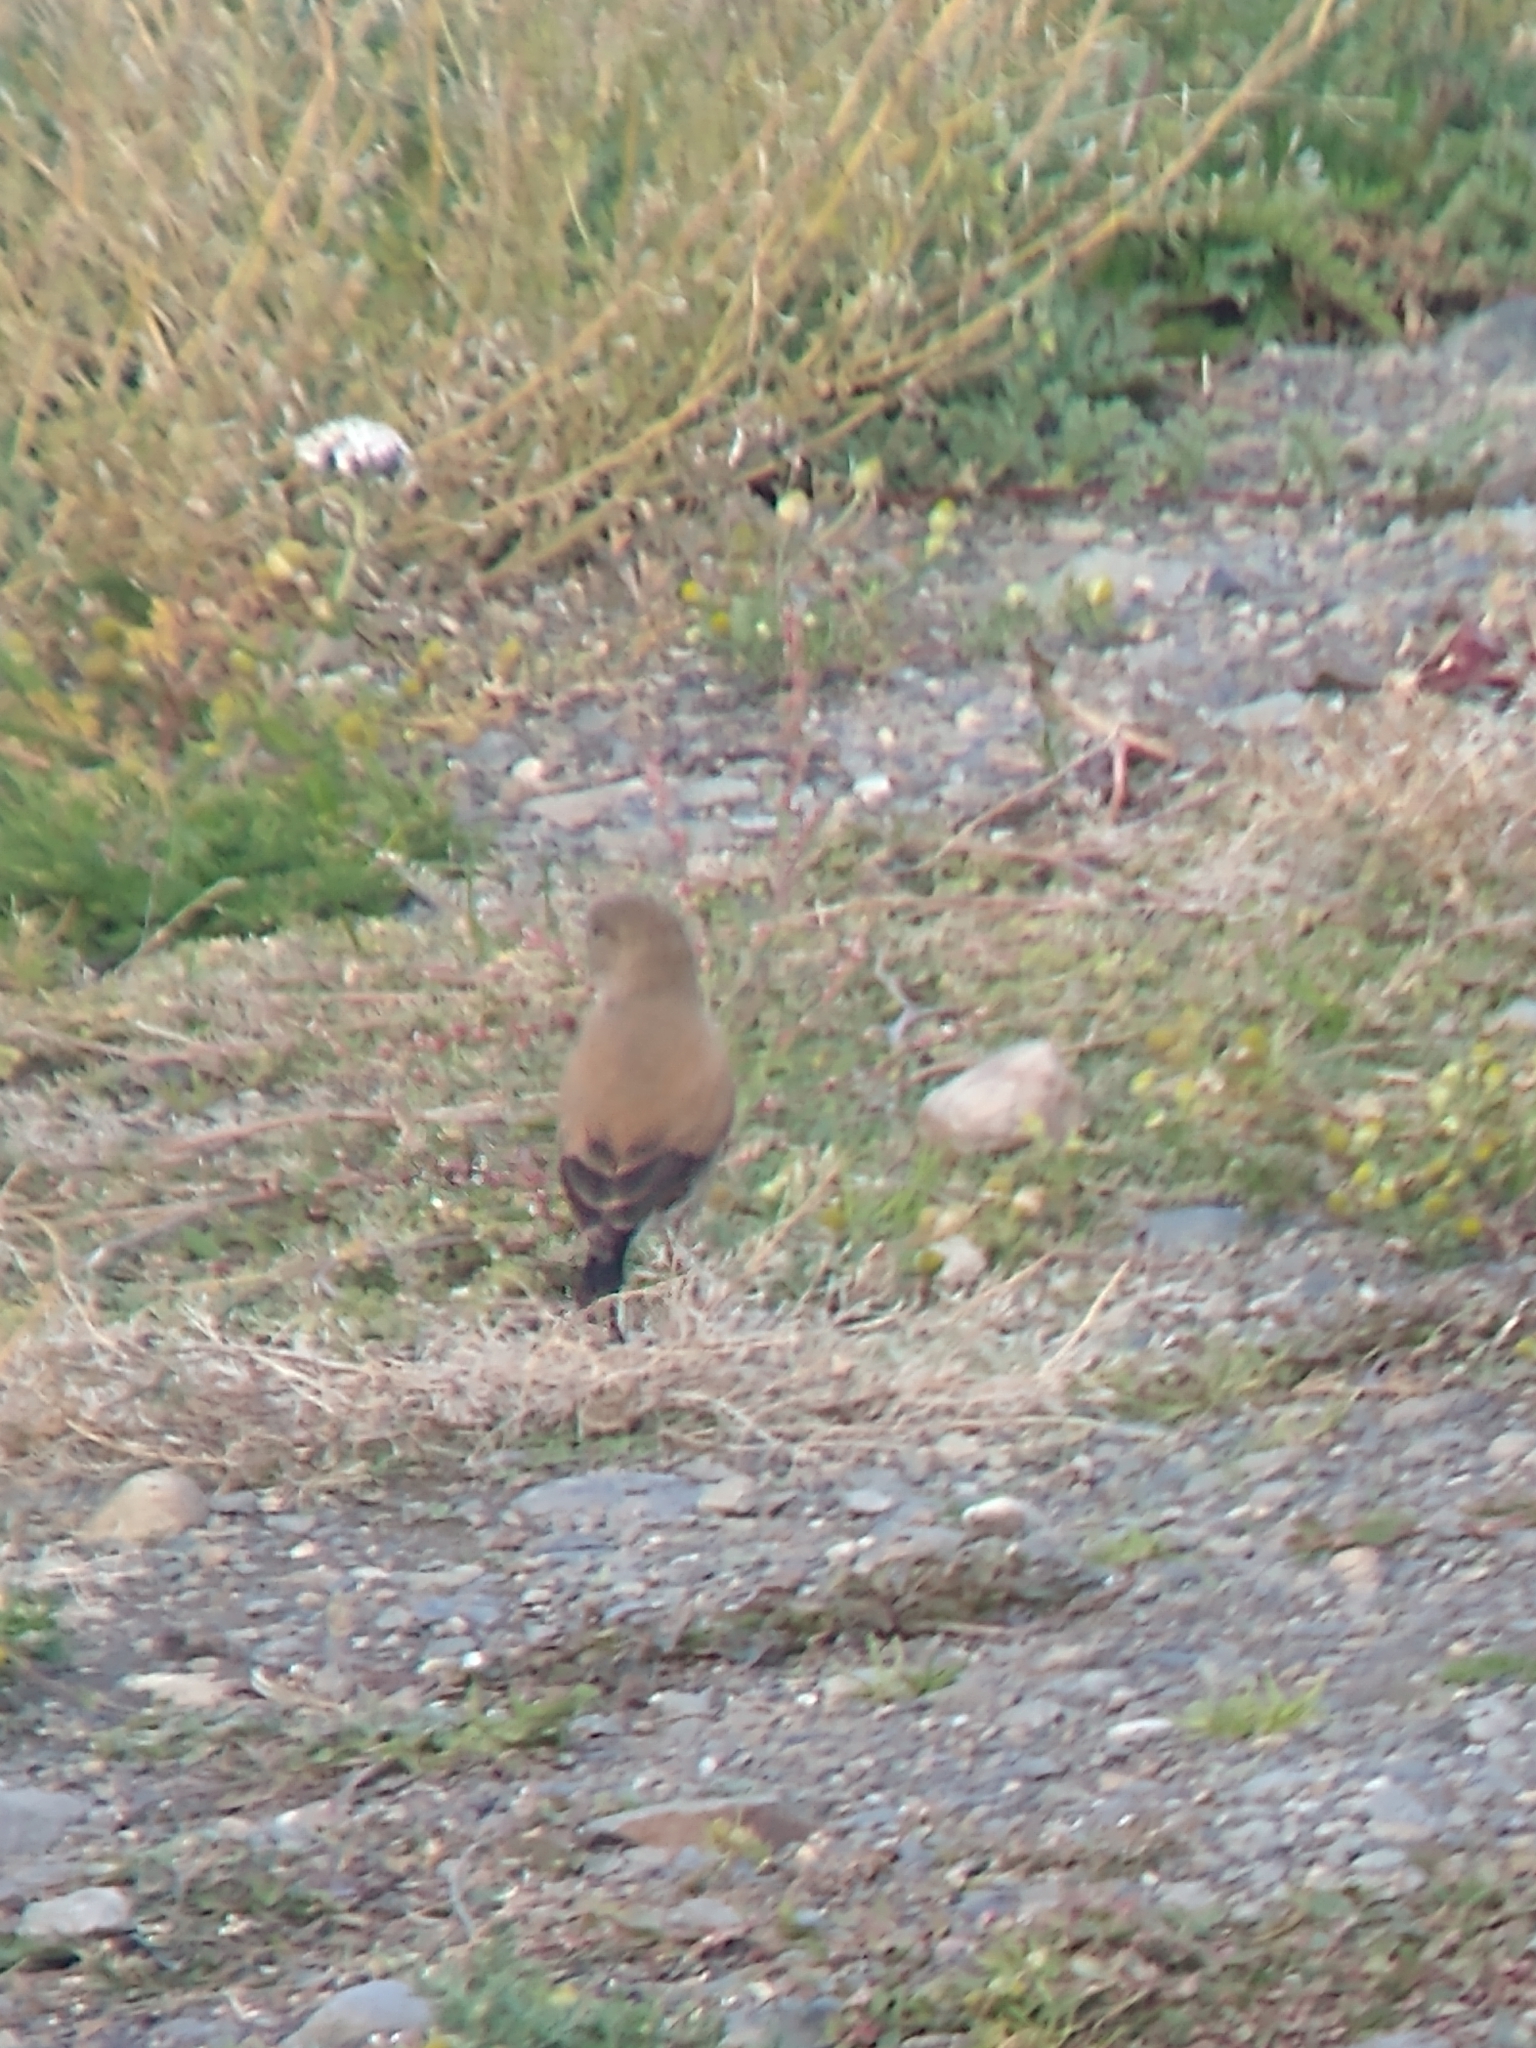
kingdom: Animalia
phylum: Chordata
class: Aves
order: Passeriformes
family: Tyrannidae
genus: Lessonia
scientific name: Lessonia rufa
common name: Austral negrito
